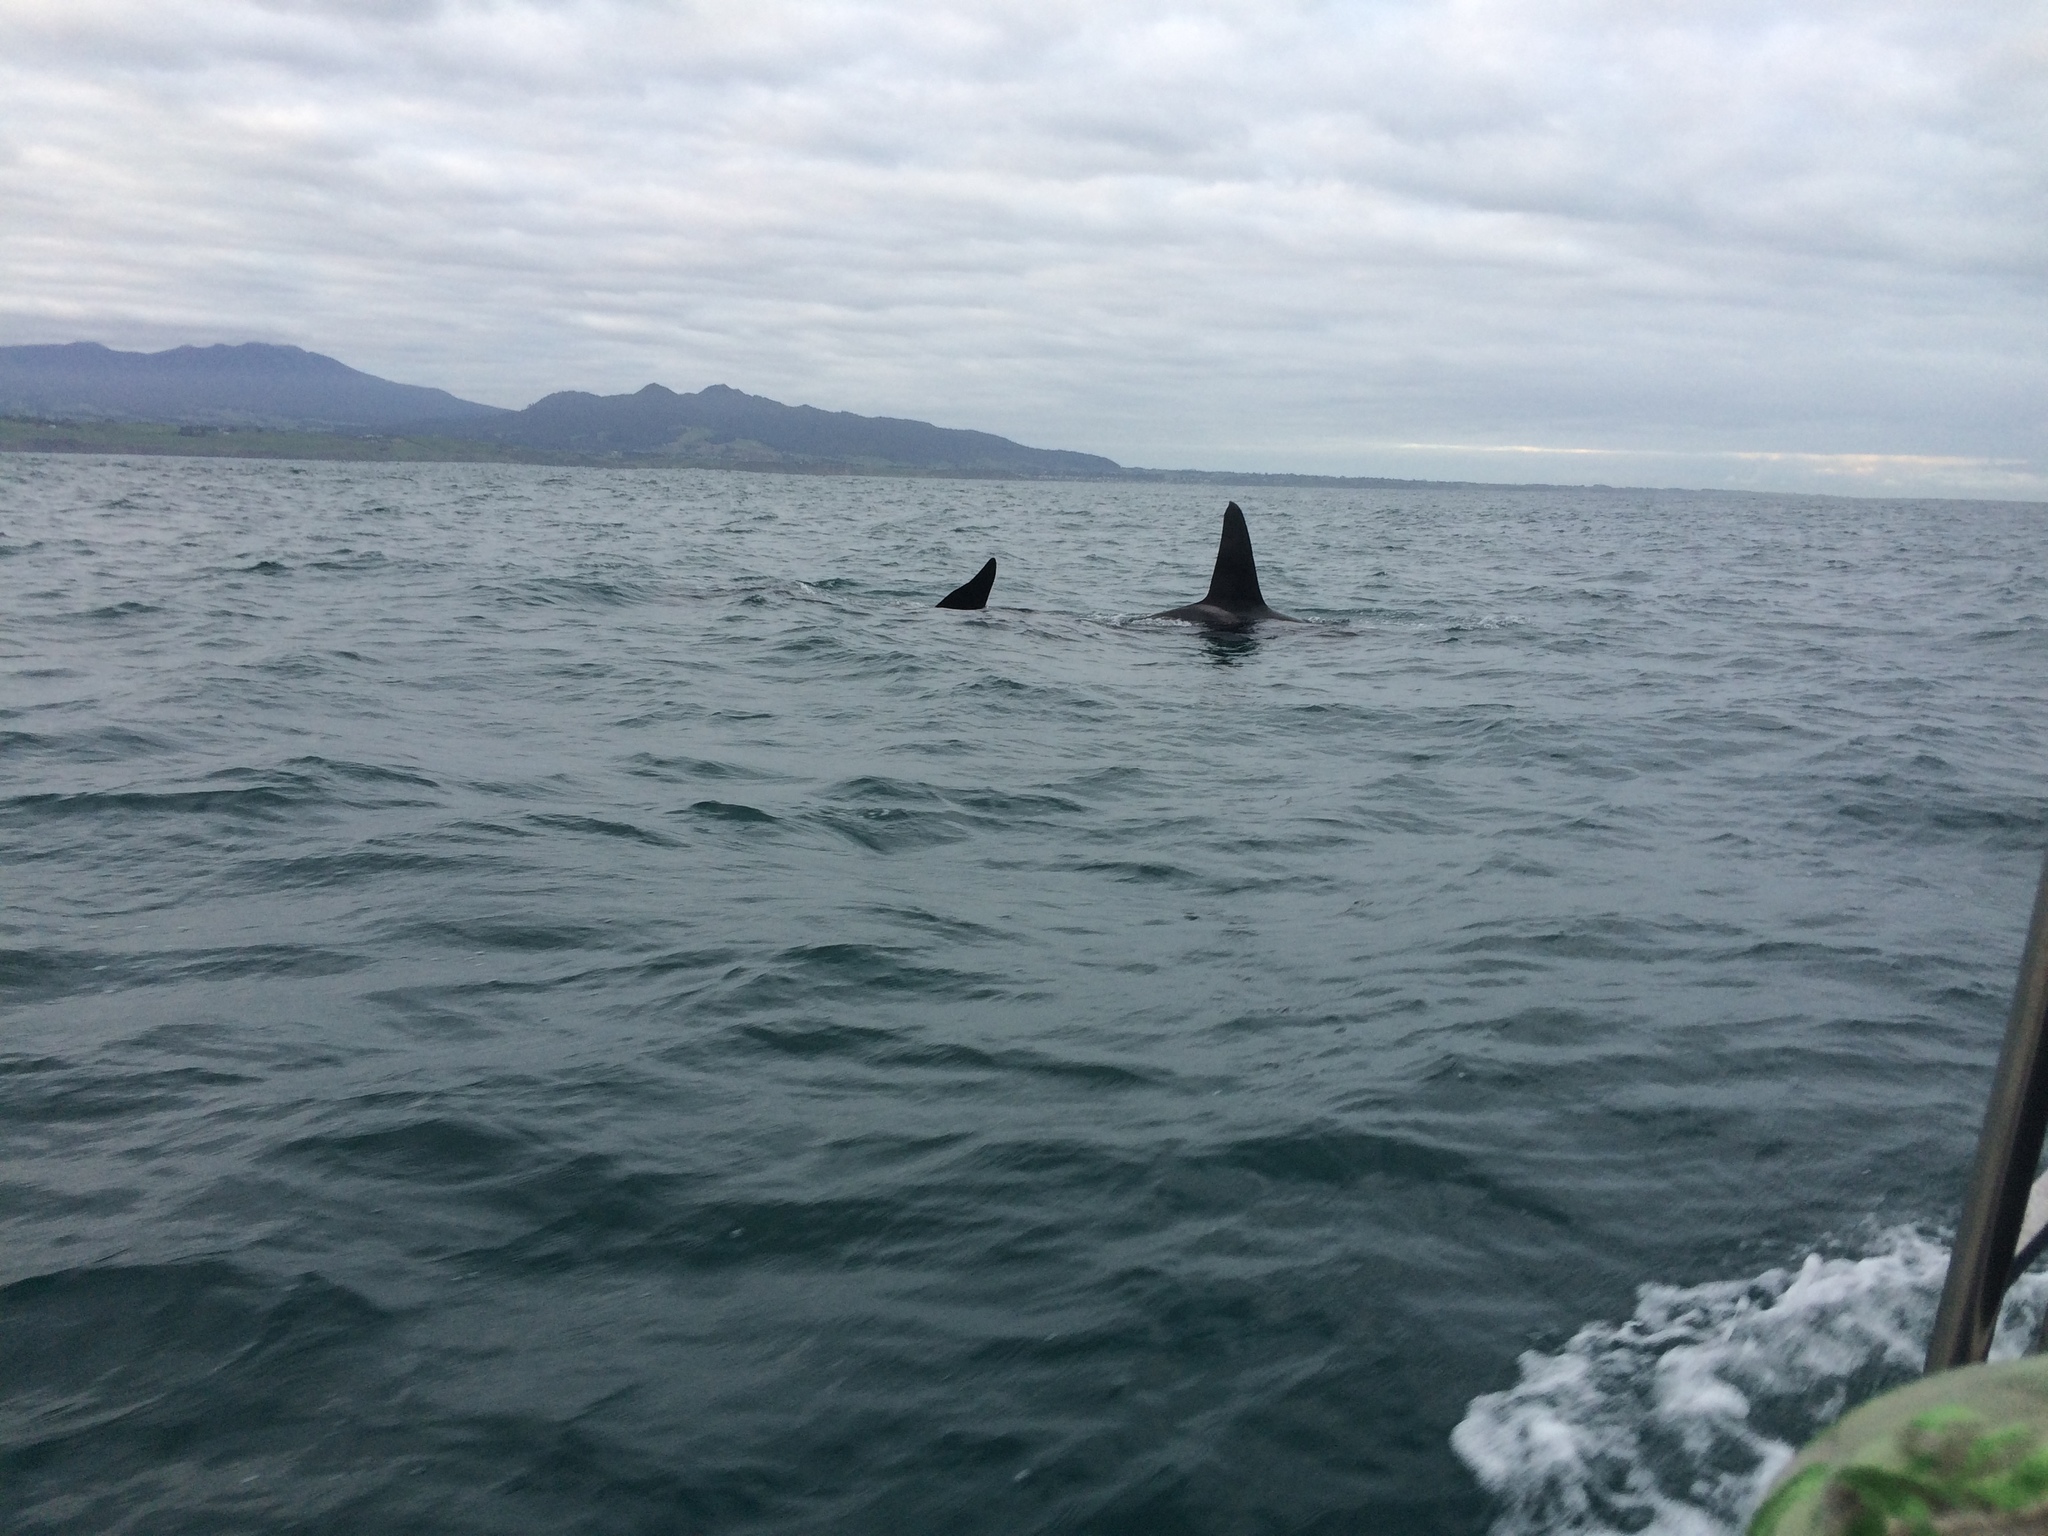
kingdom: Animalia
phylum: Chordata
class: Mammalia
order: Cetacea
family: Delphinidae
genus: Orcinus
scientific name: Orcinus orca
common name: Killer whale
